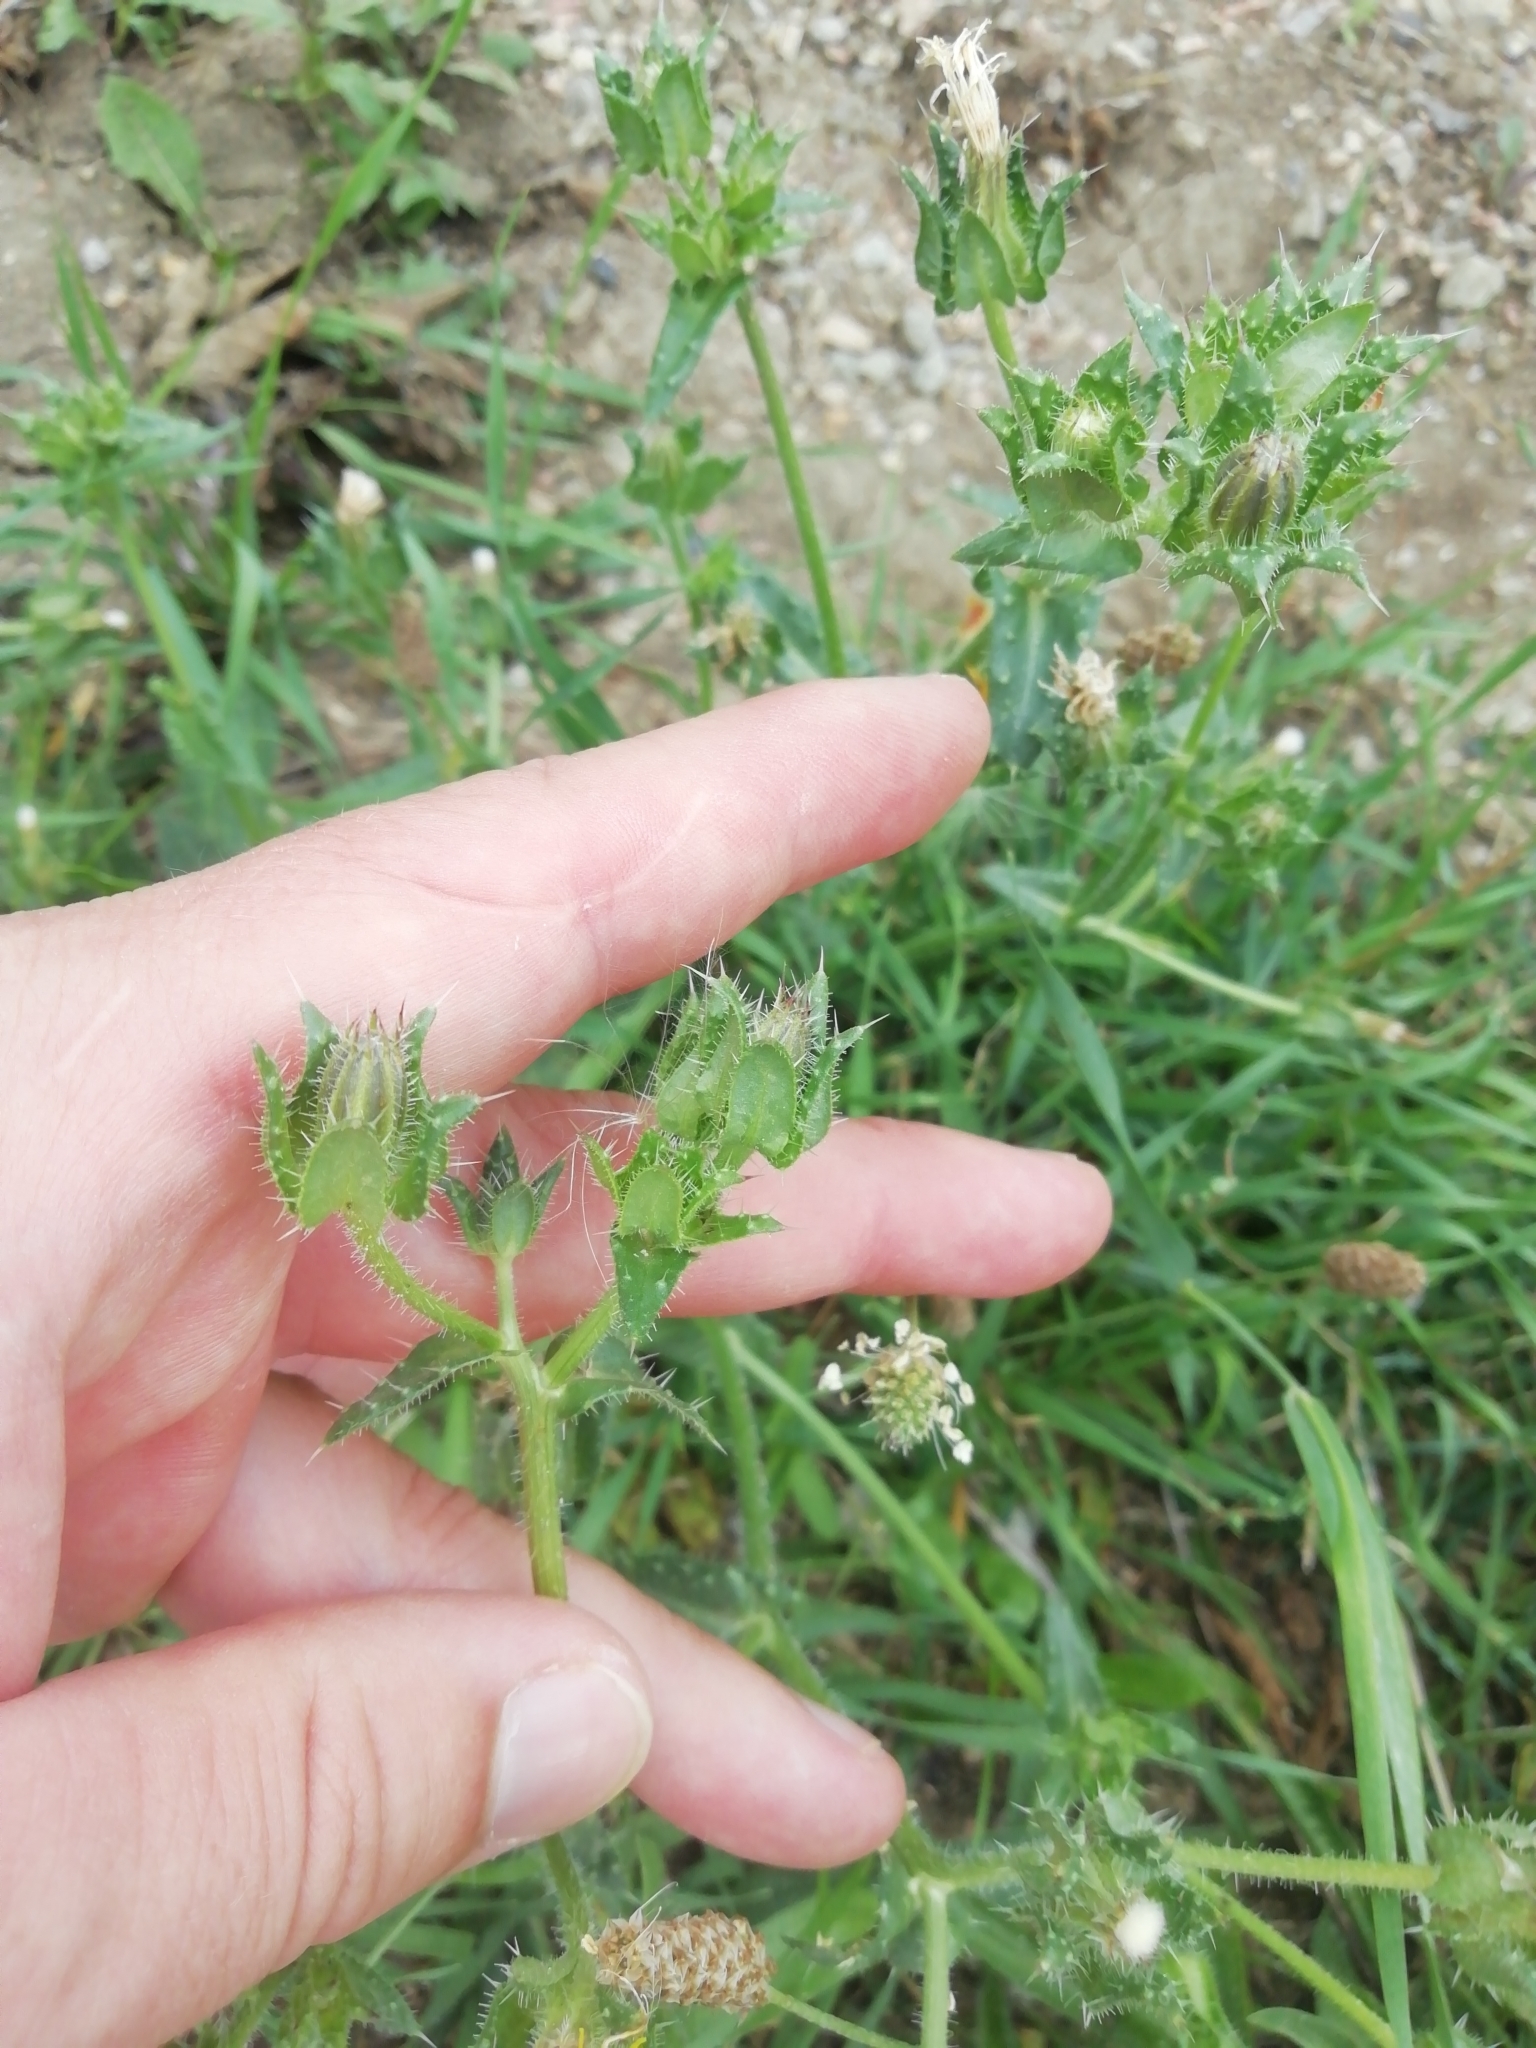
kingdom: Plantae
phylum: Tracheophyta
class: Magnoliopsida
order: Asterales
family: Asteraceae
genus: Helminthotheca
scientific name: Helminthotheca echioides
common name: Ox-tongue
